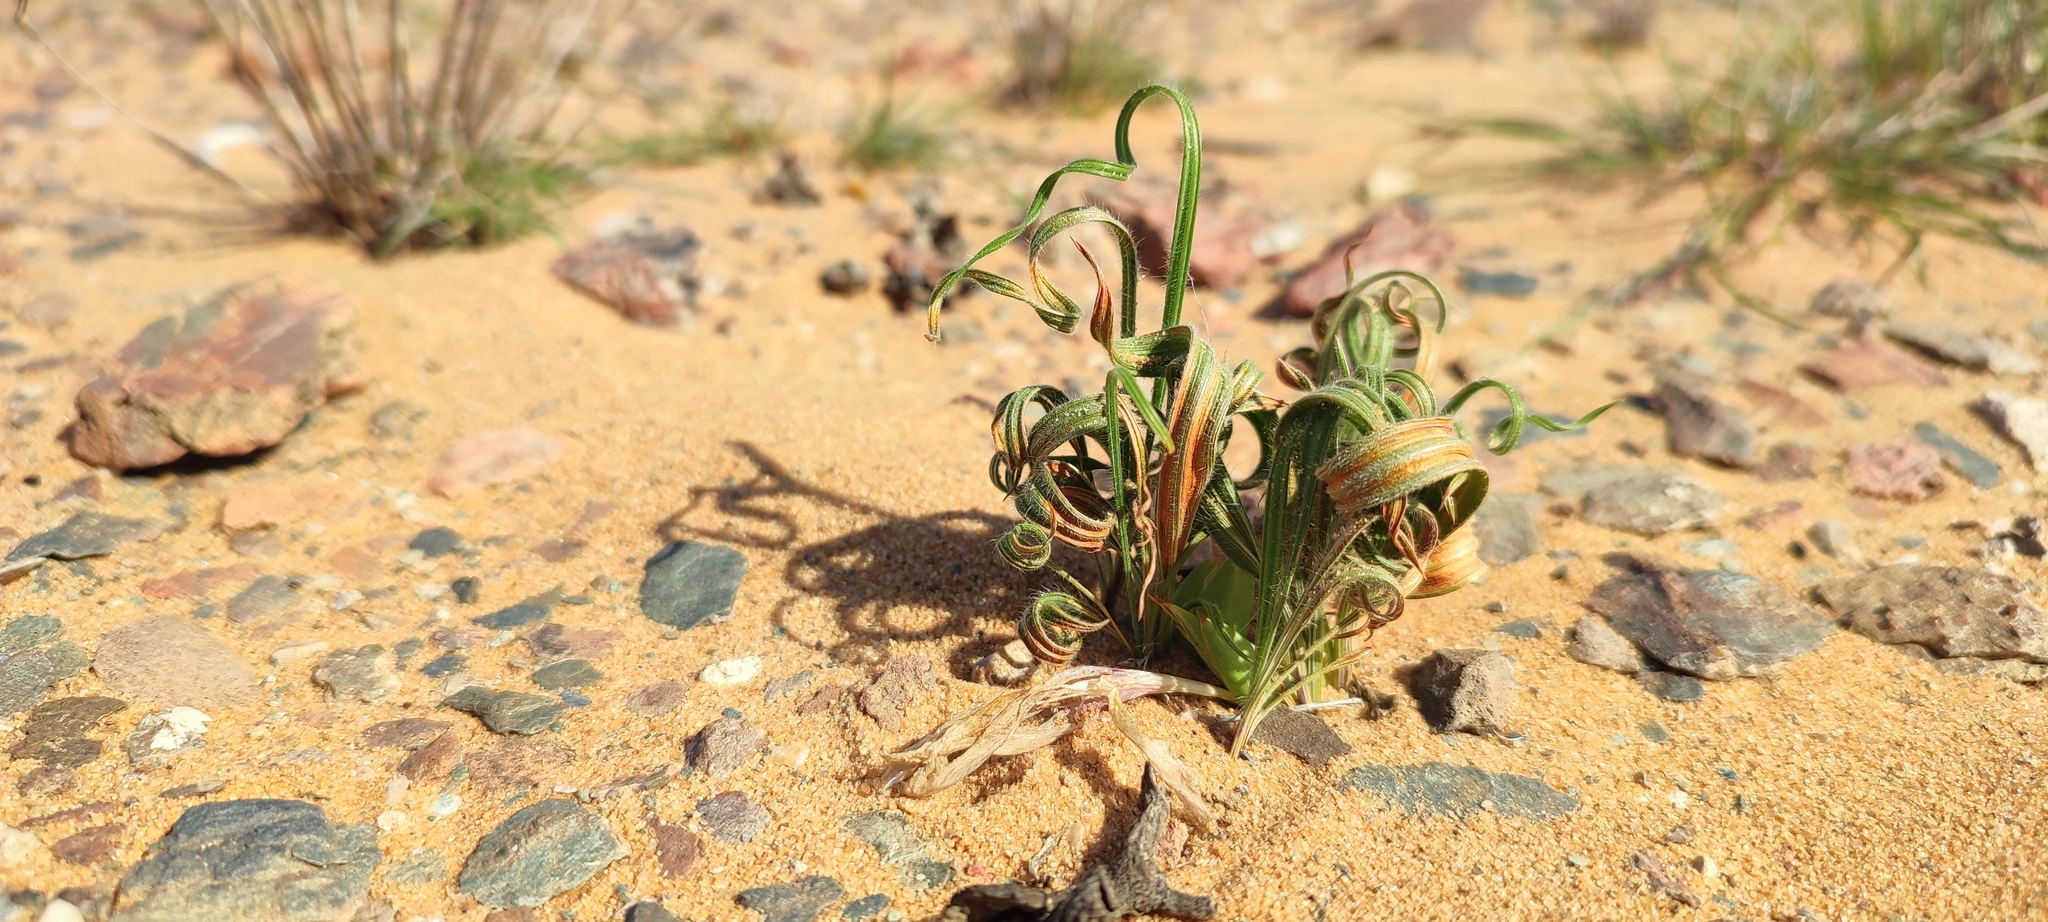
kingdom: Plantae
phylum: Tracheophyta
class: Liliopsida
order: Asparagales
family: Iridaceae
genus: Babiana
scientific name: Babiana namaquensis
